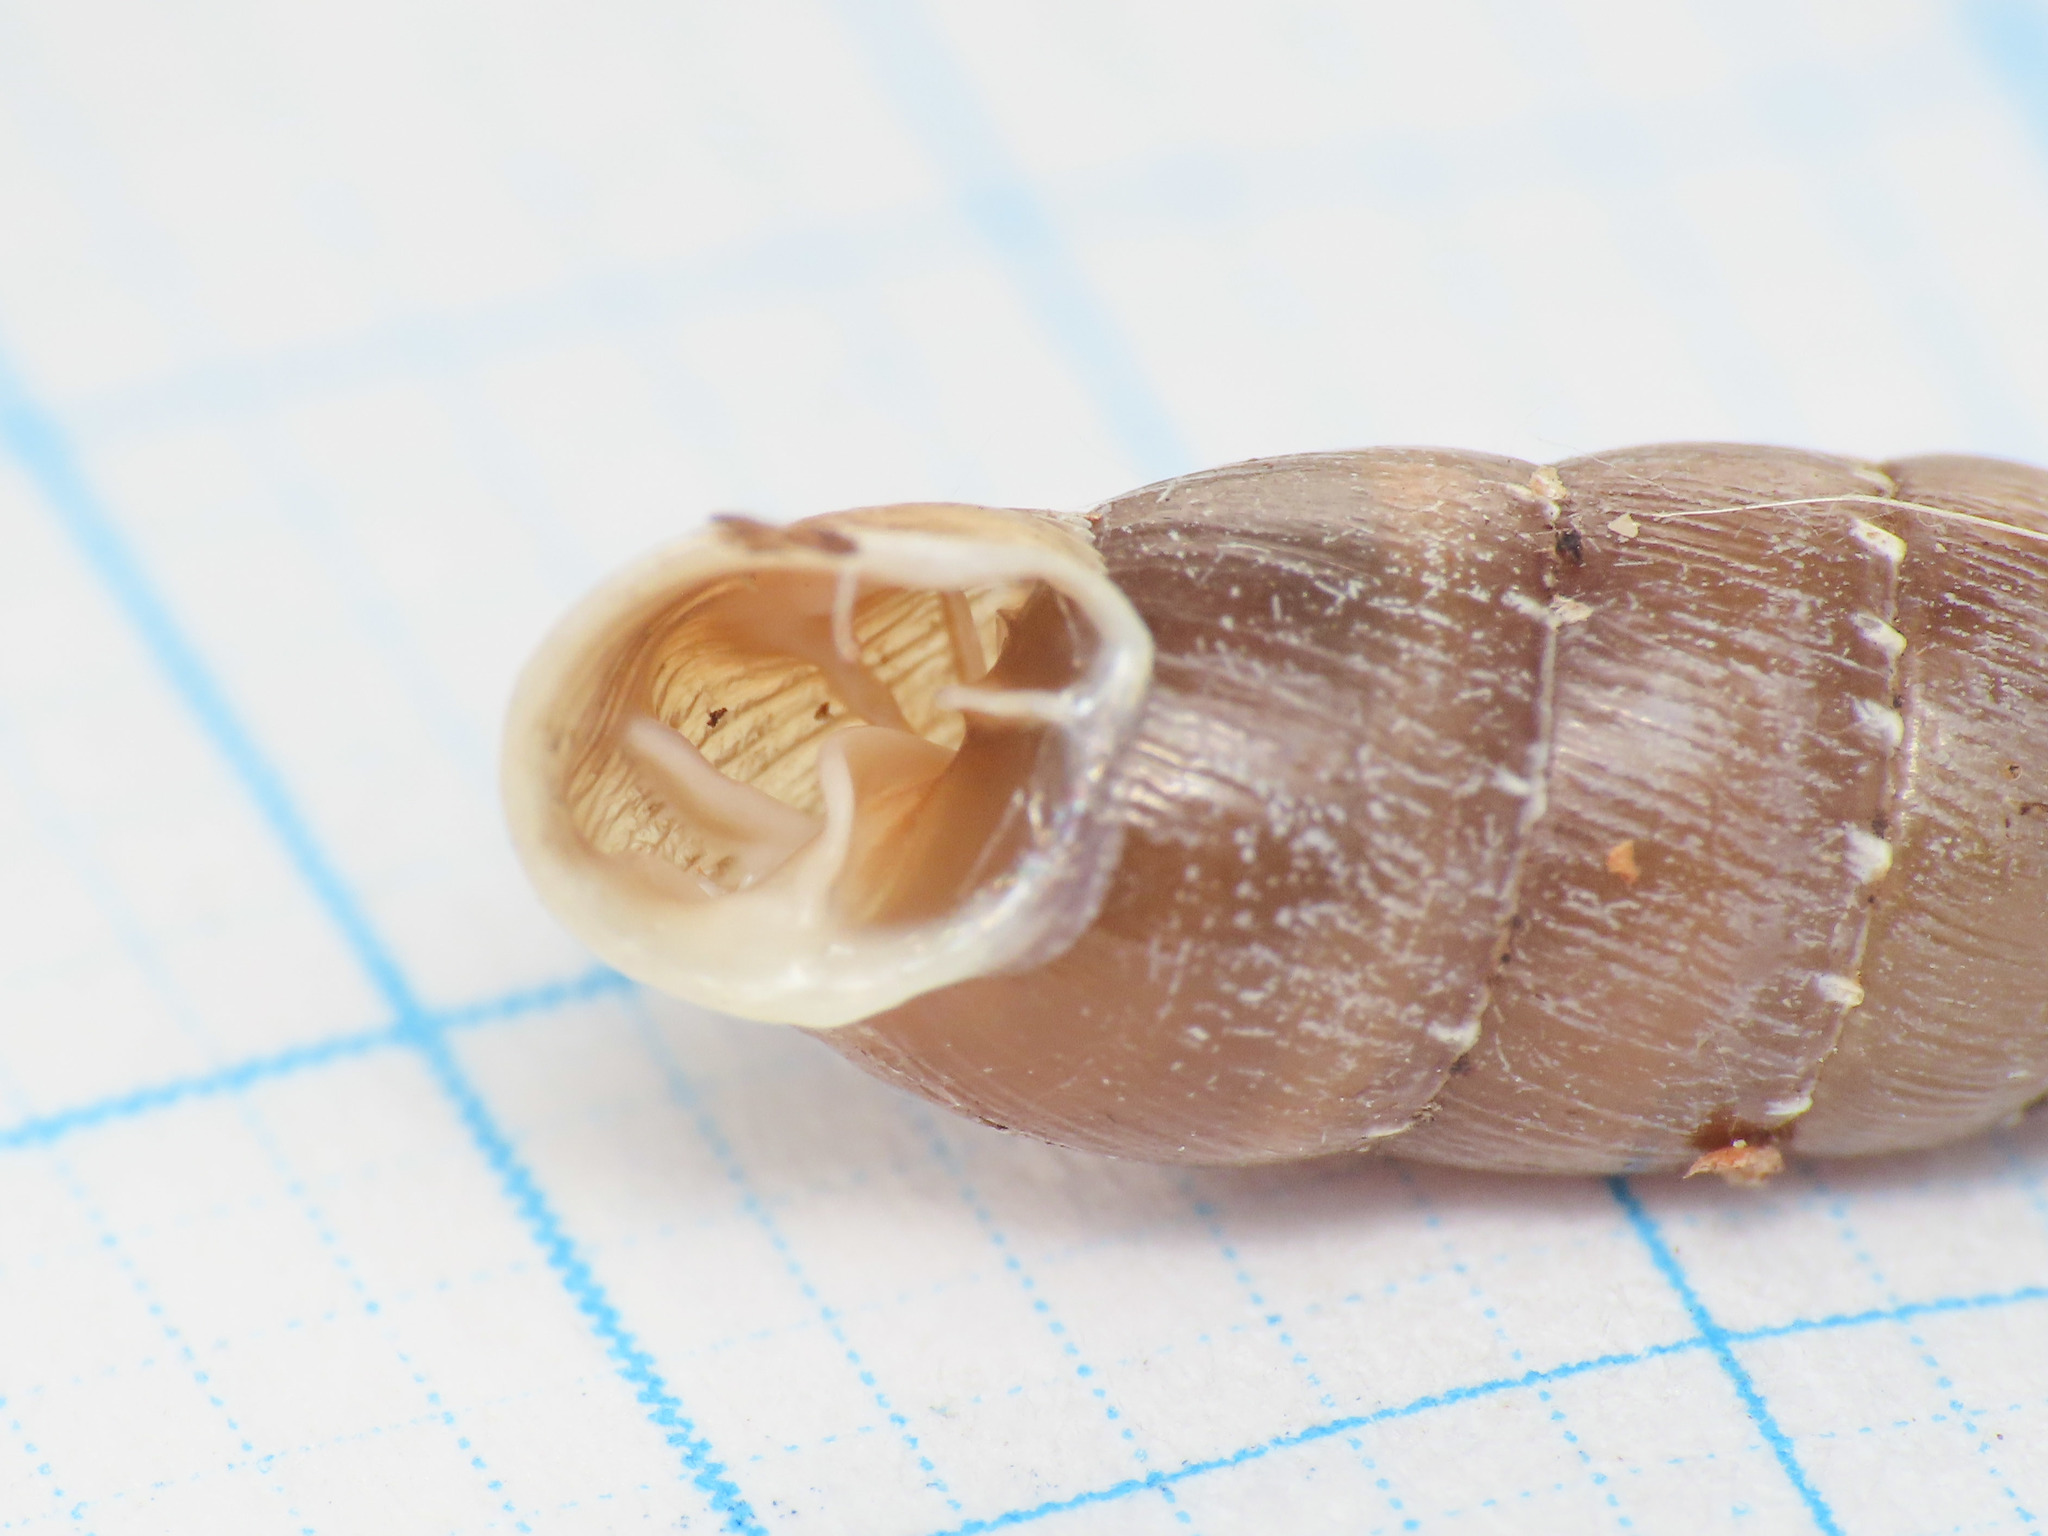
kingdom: Animalia
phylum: Mollusca
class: Gastropoda
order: Stylommatophora
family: Clausiliidae
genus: Gibbularia
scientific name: Gibbularia gibbula
